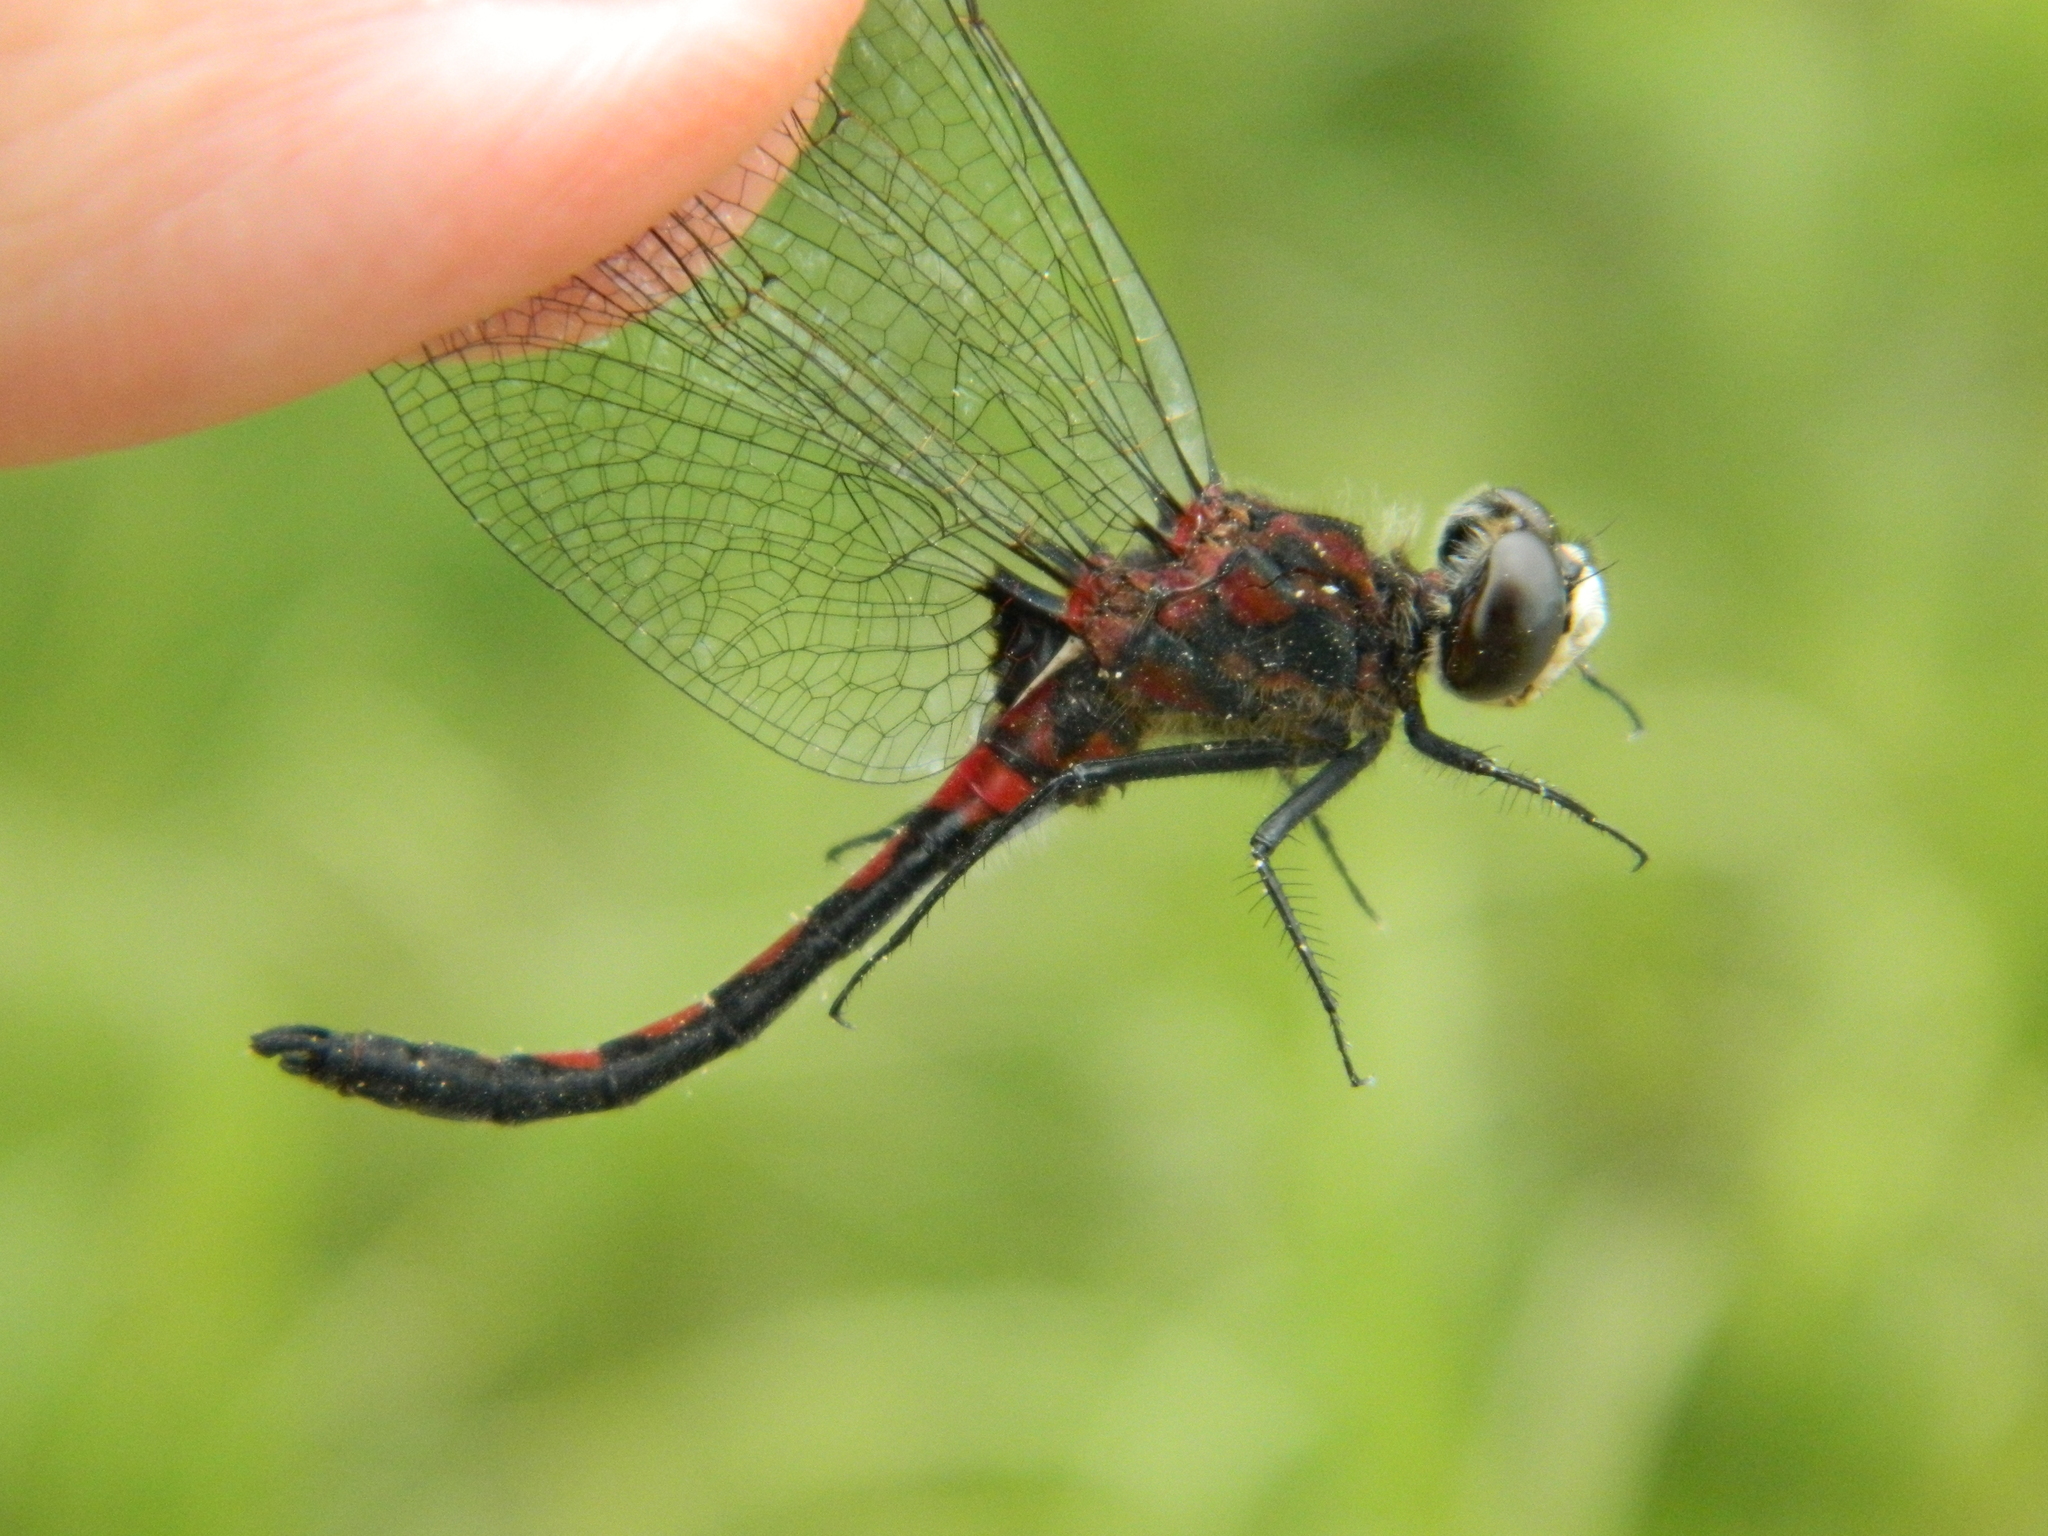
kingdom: Animalia
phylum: Arthropoda
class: Insecta
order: Odonata
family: Libellulidae
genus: Leucorrhinia
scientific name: Leucorrhinia hudsonica
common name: Hudsonian whiteface
